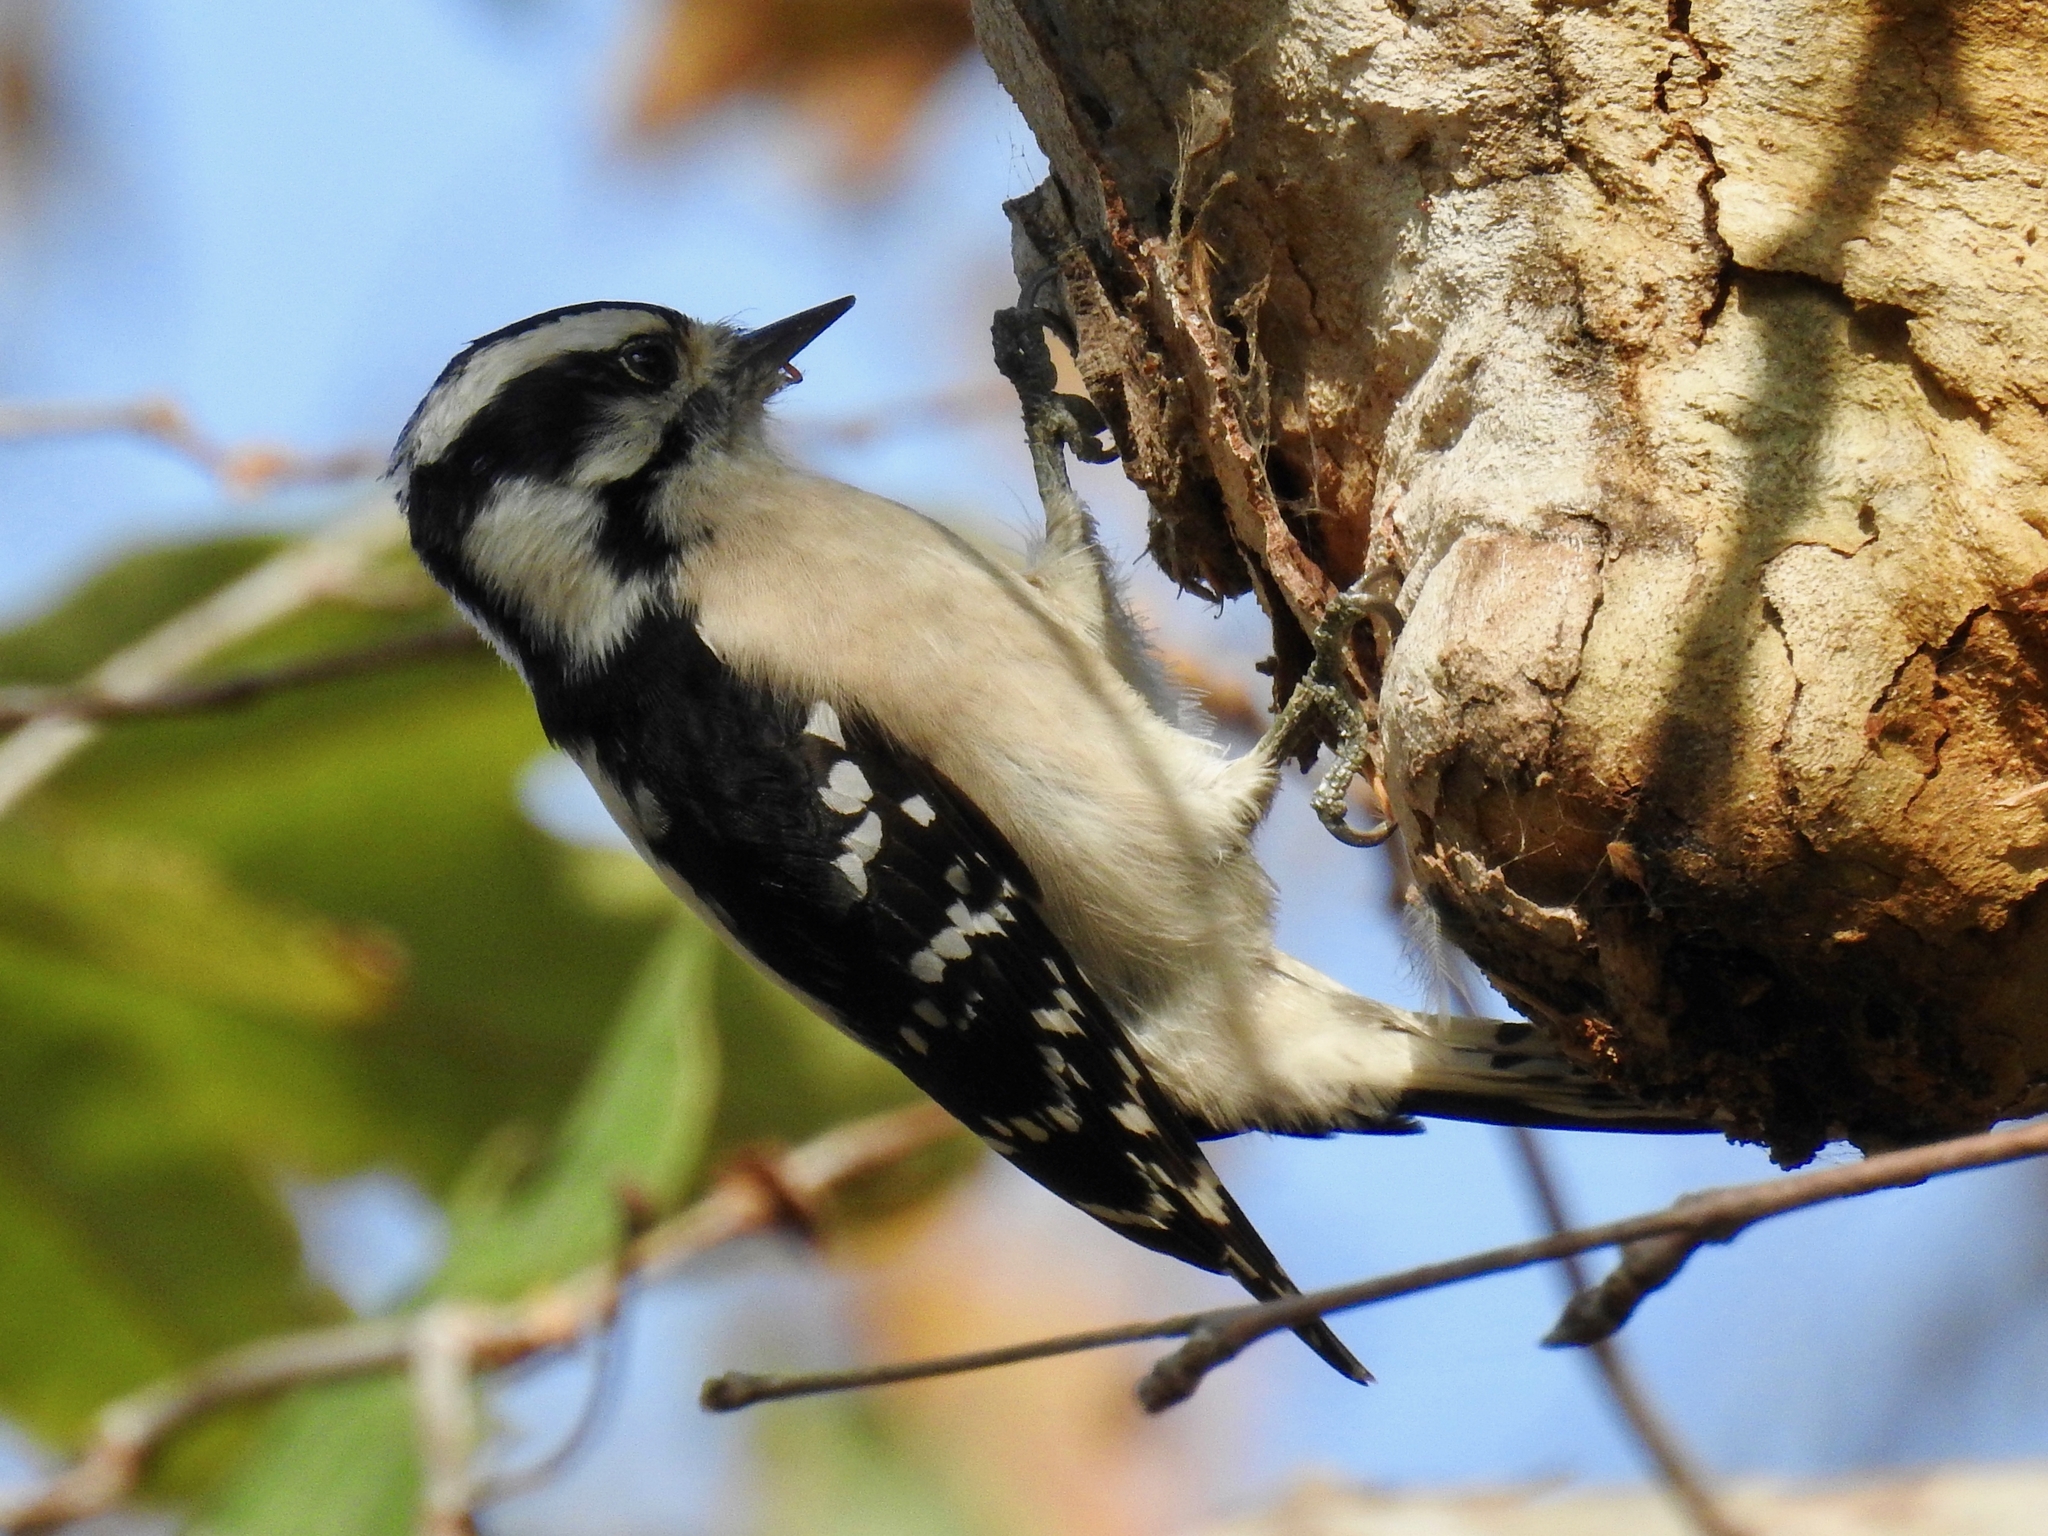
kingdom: Animalia
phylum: Chordata
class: Aves
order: Piciformes
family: Picidae
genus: Dryobates
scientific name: Dryobates pubescens
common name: Downy woodpecker
